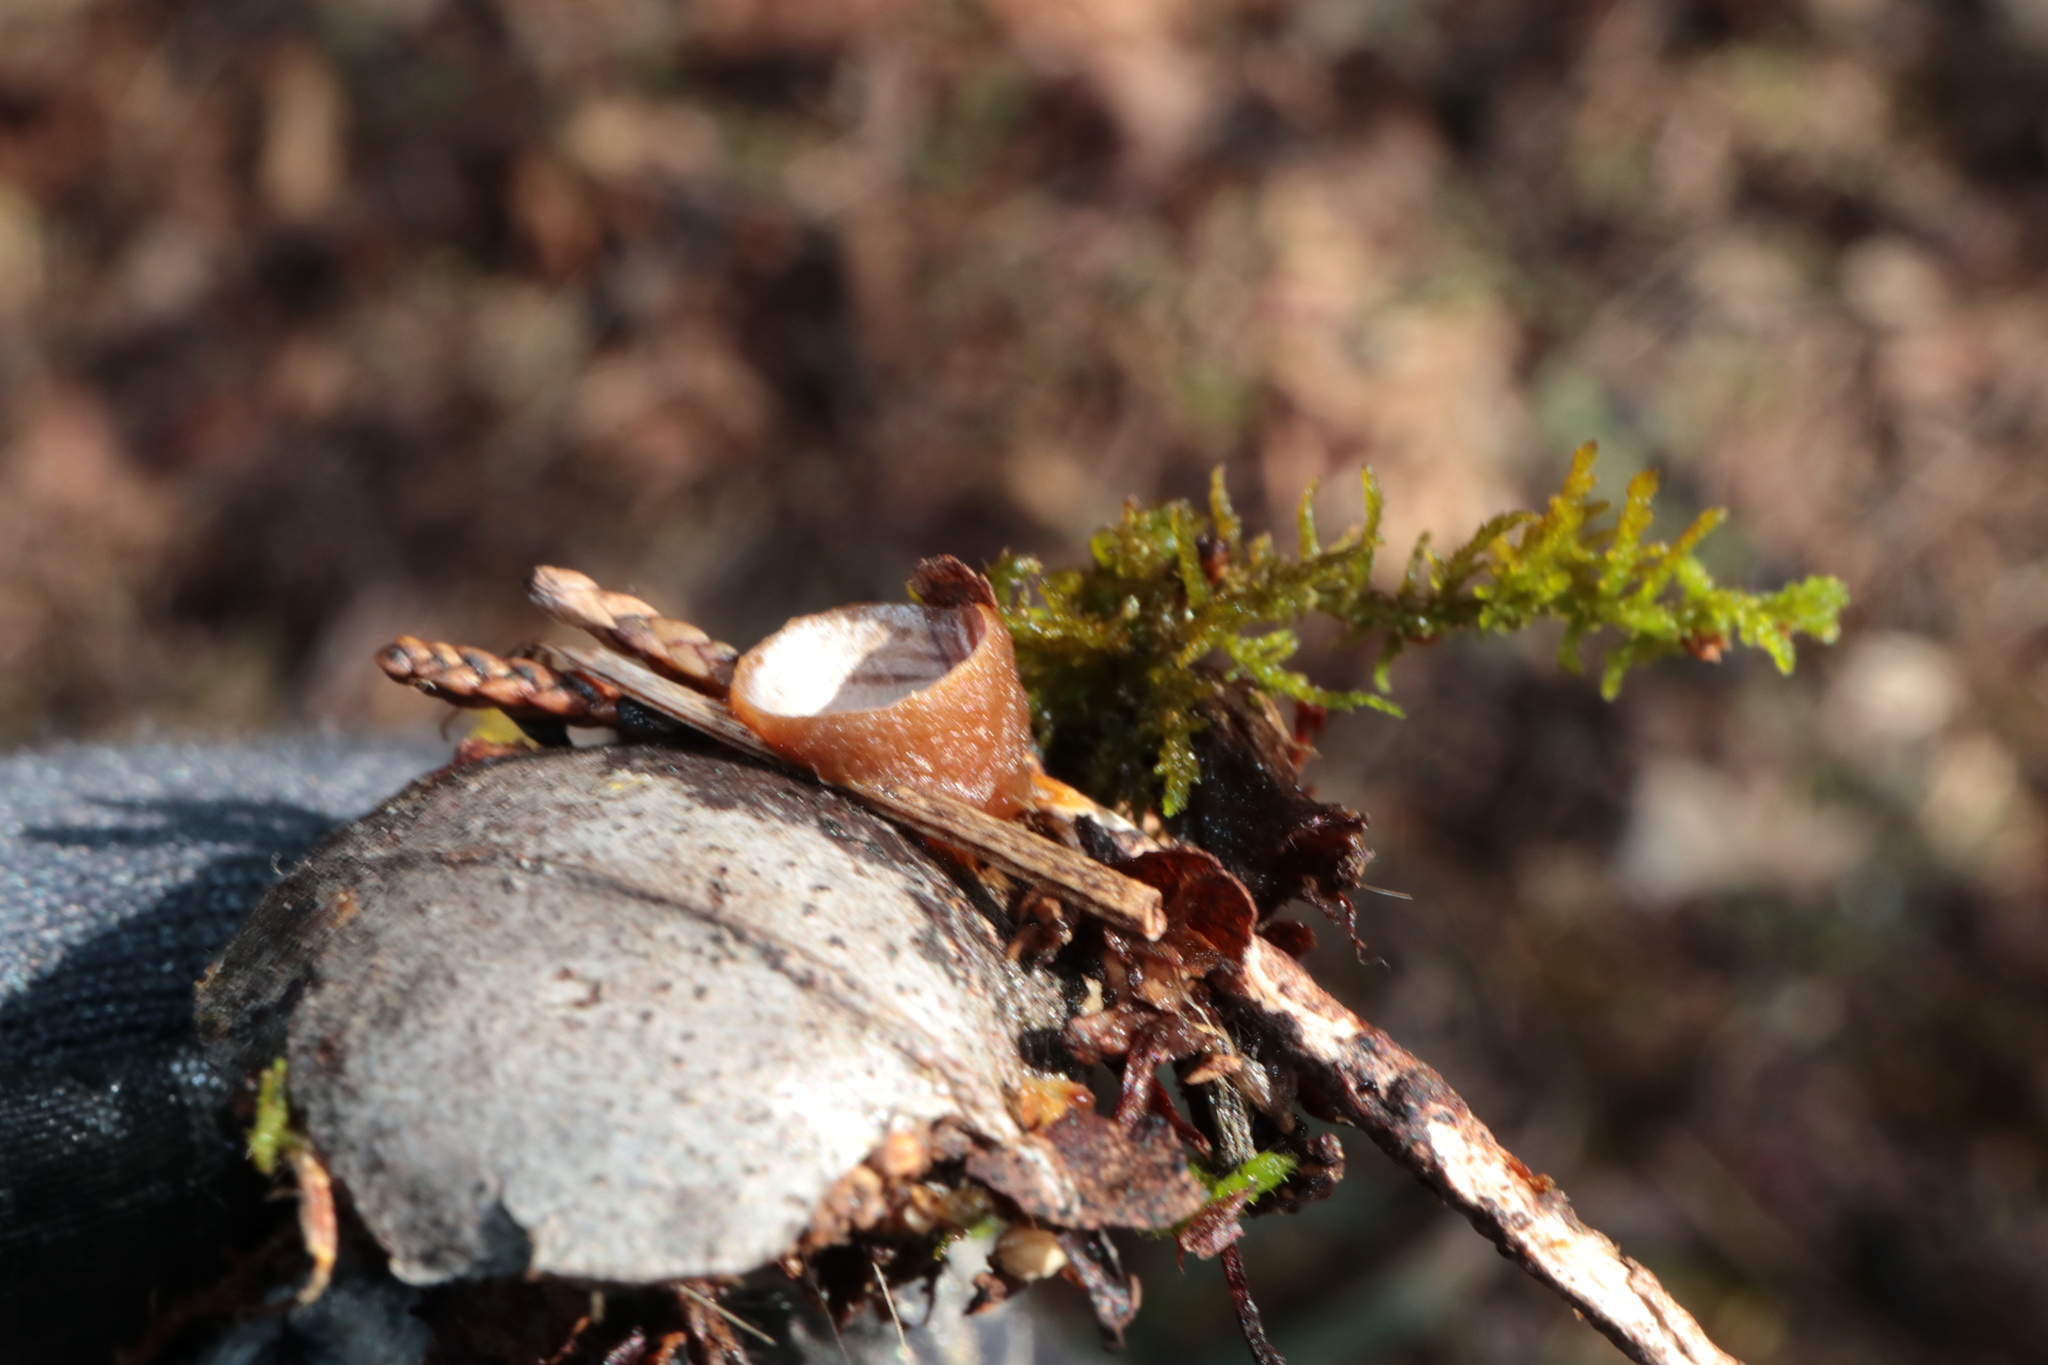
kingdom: Fungi
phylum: Basidiomycota
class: Agaricomycetes
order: Polyporales
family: Polyporaceae
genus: Poronidulus
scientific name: Poronidulus conchifer
